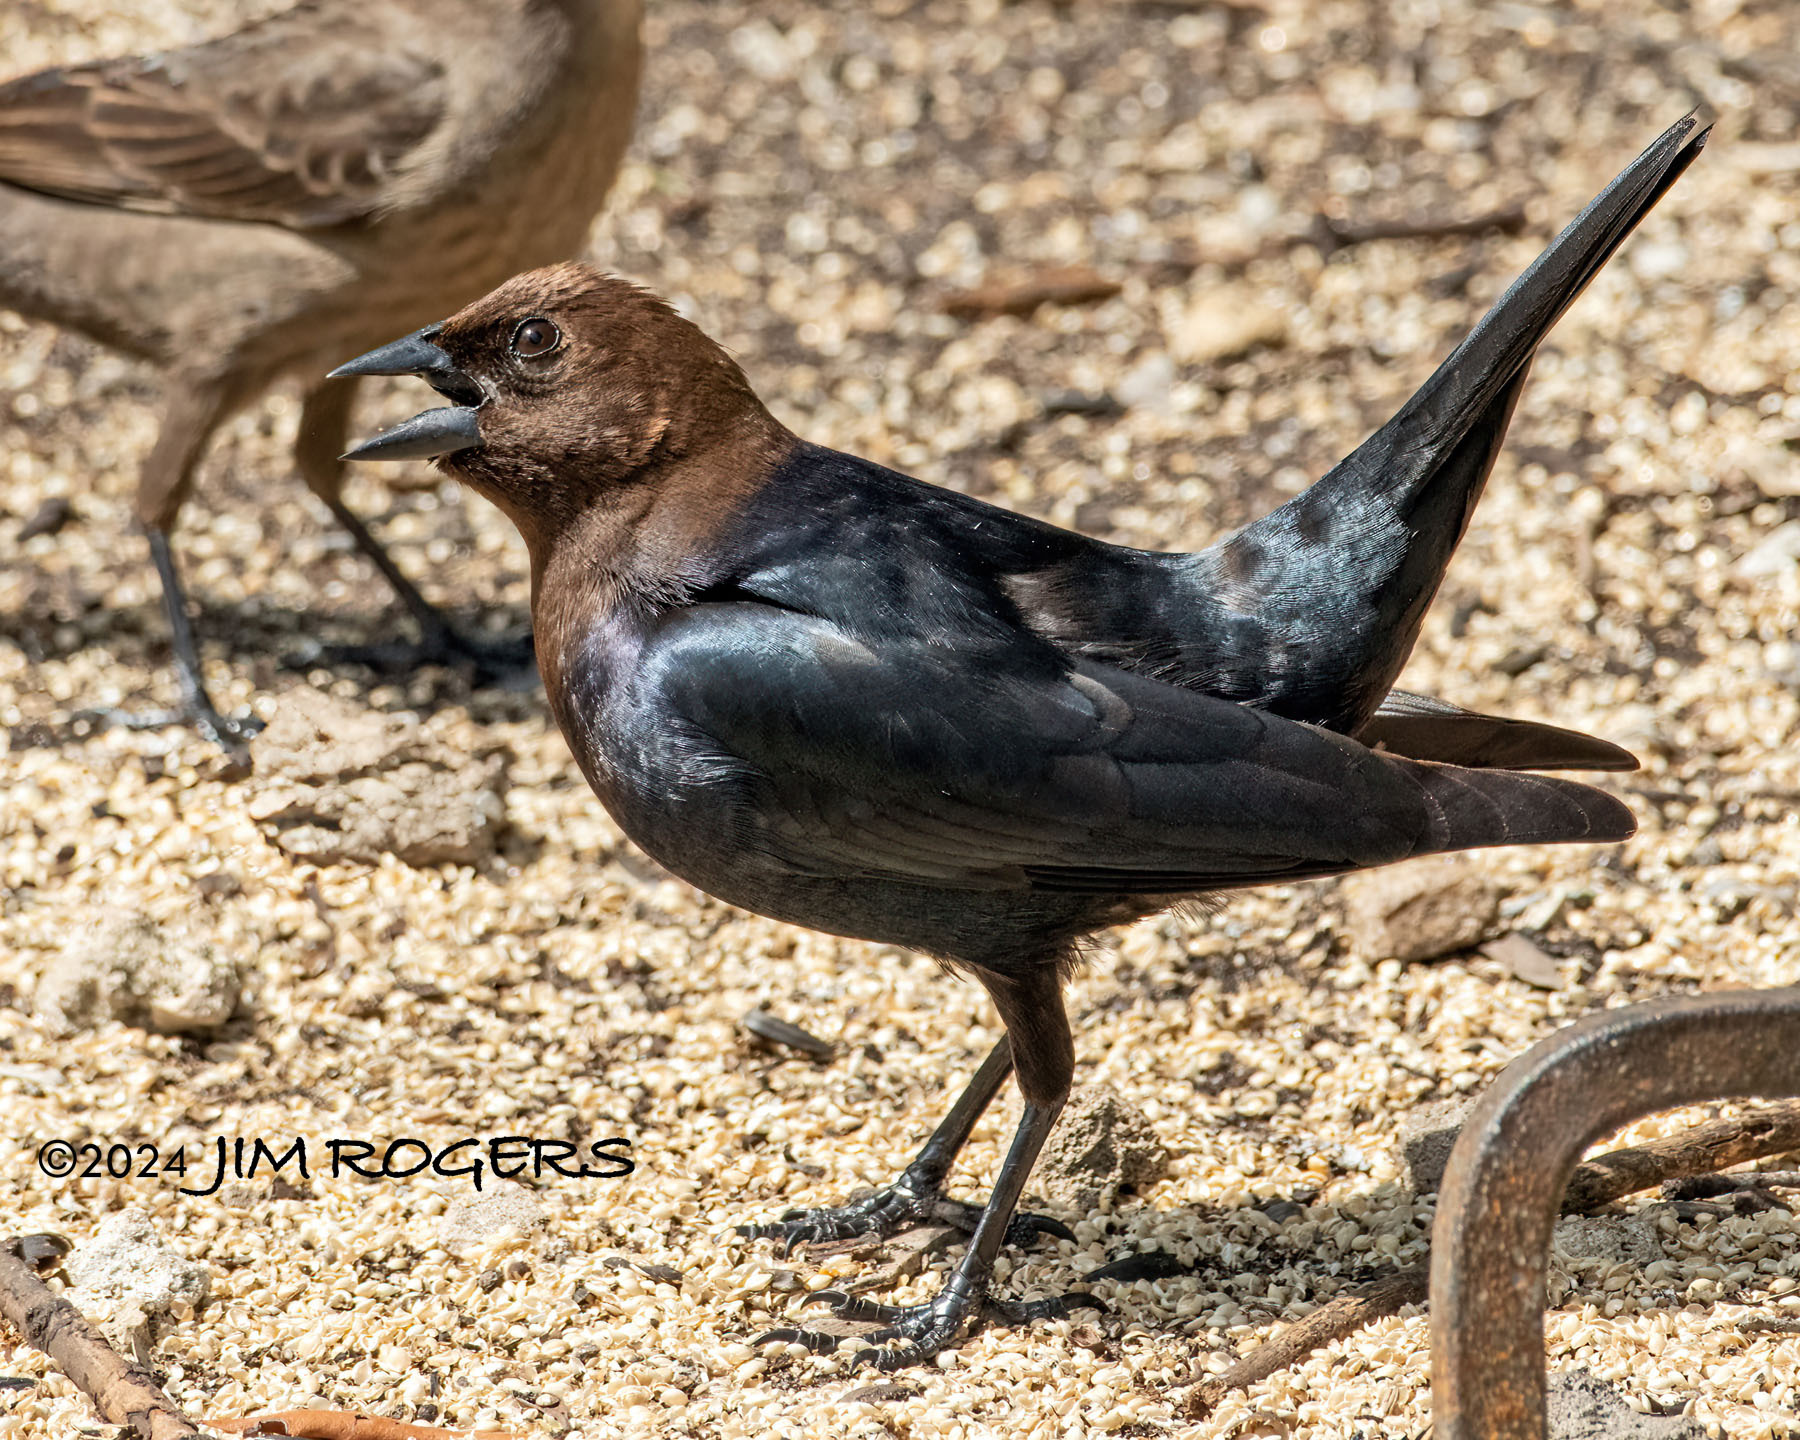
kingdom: Animalia
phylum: Chordata
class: Aves
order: Passeriformes
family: Icteridae
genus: Molothrus
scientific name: Molothrus ater
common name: Brown-headed cowbird
